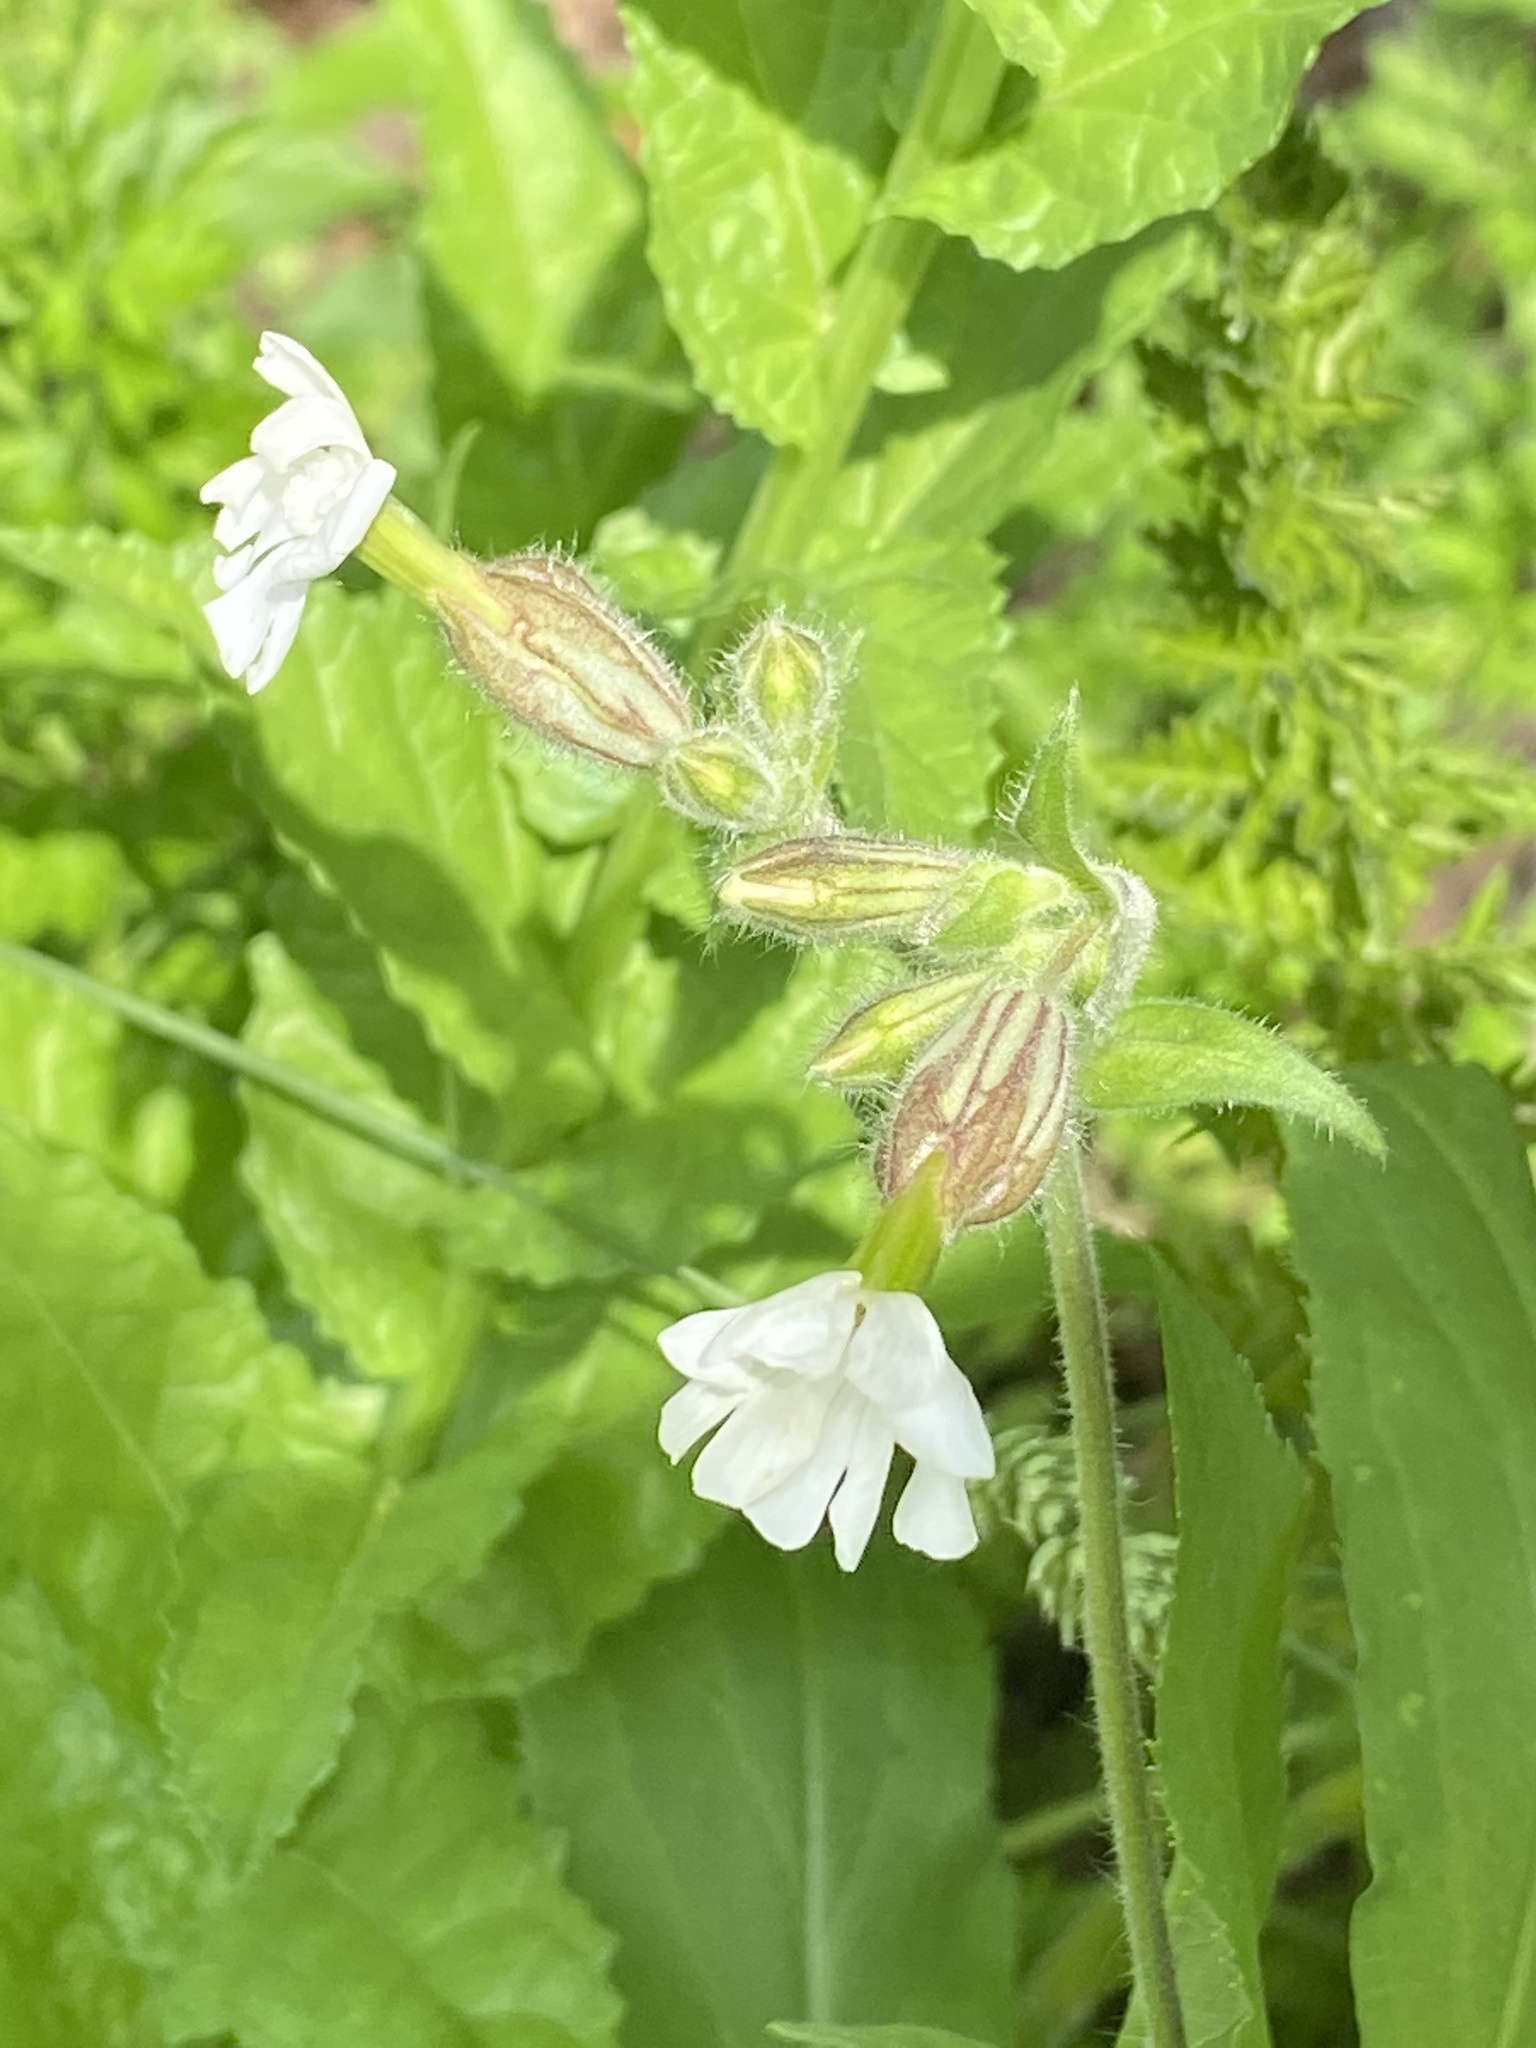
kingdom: Plantae
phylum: Tracheophyta
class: Magnoliopsida
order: Caryophyllales
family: Caryophyllaceae
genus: Silene
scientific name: Silene latifolia
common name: White campion
